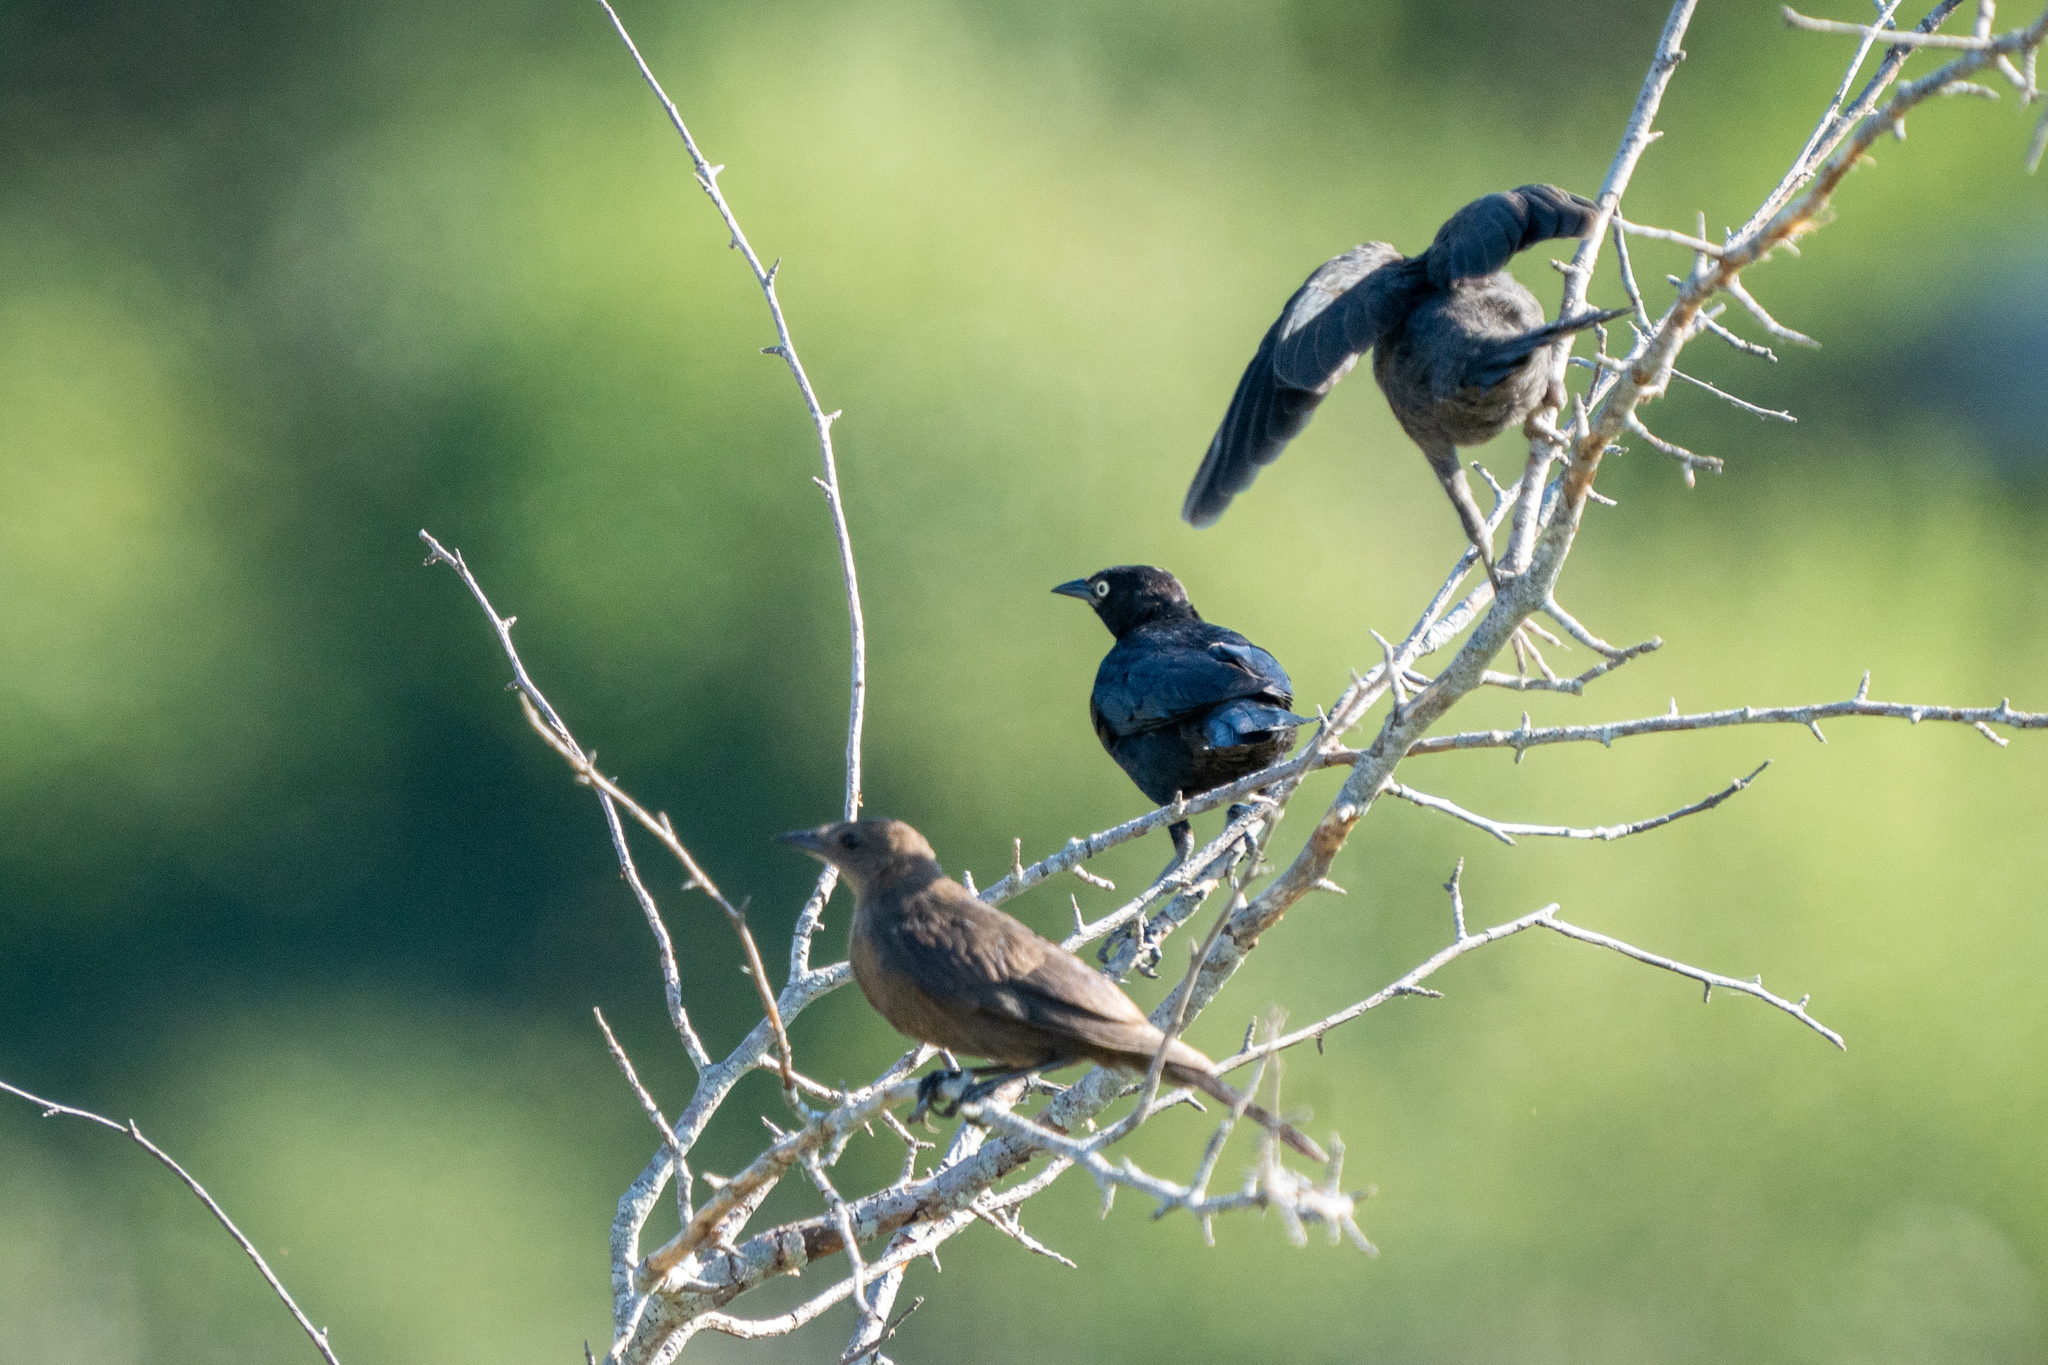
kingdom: Animalia
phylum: Chordata
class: Aves
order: Passeriformes
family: Icteridae
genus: Euphagus
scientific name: Euphagus cyanocephalus
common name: Brewer's blackbird
